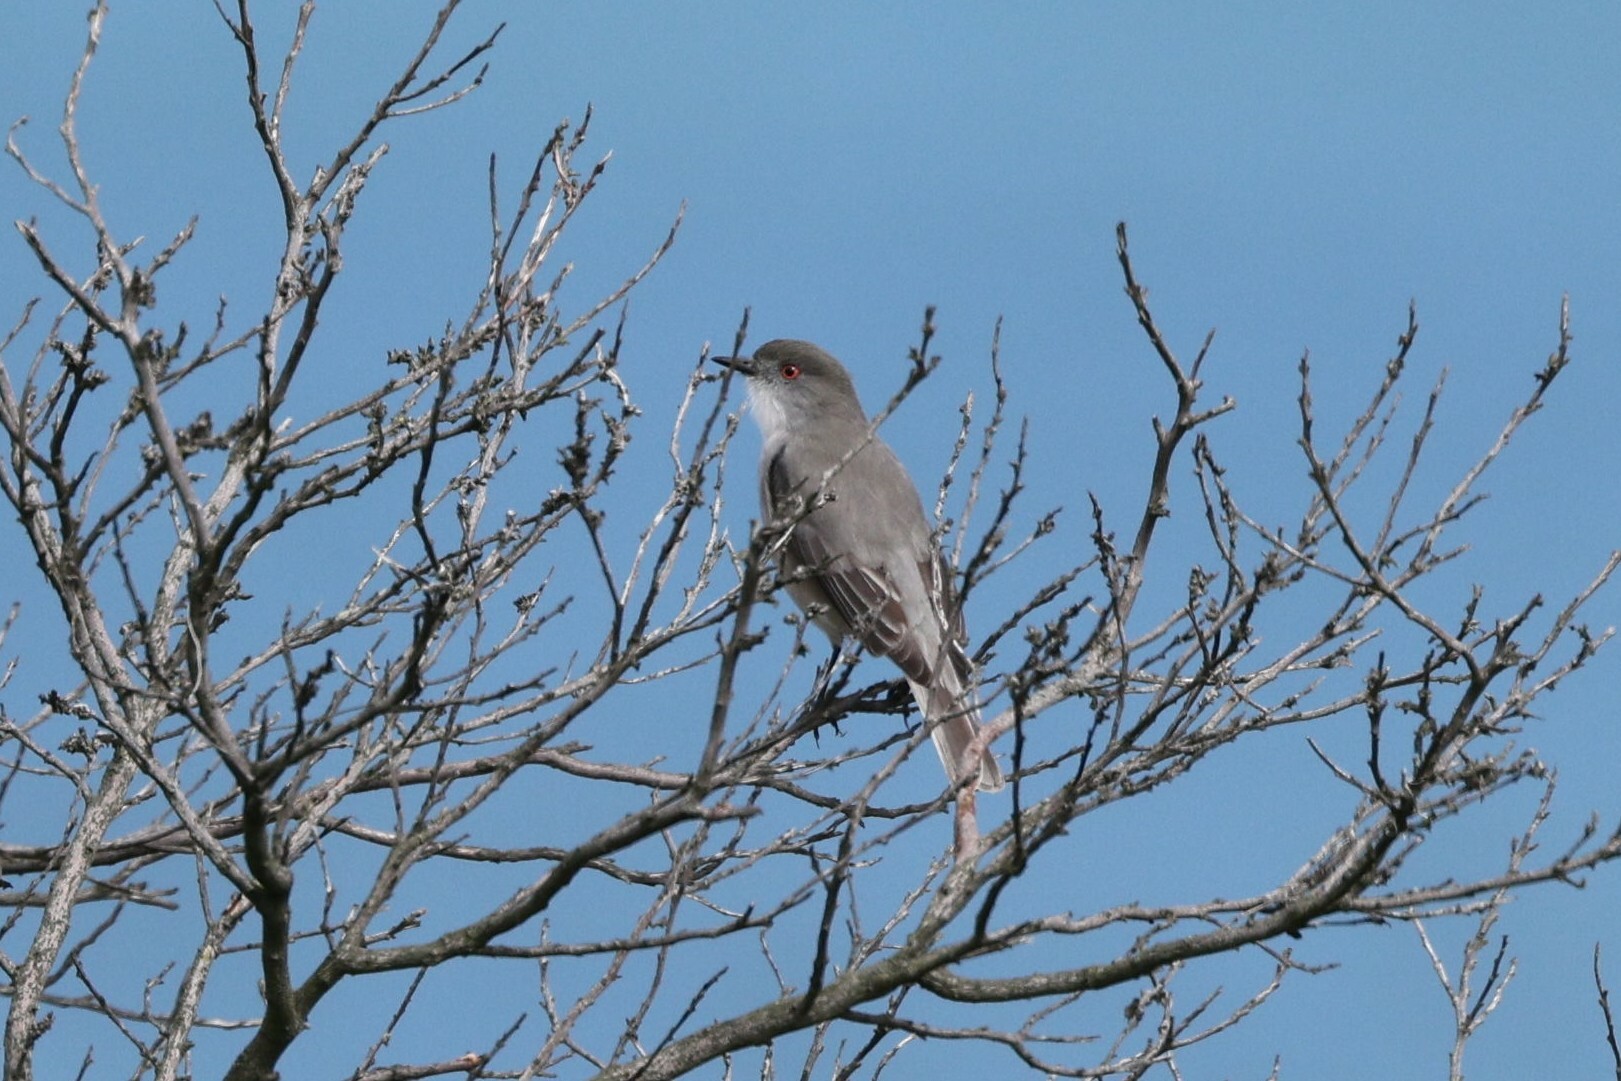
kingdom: Animalia
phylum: Chordata
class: Aves
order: Passeriformes
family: Tyrannidae
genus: Xolmis
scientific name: Xolmis pyrope
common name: Fire-eyed diucon
